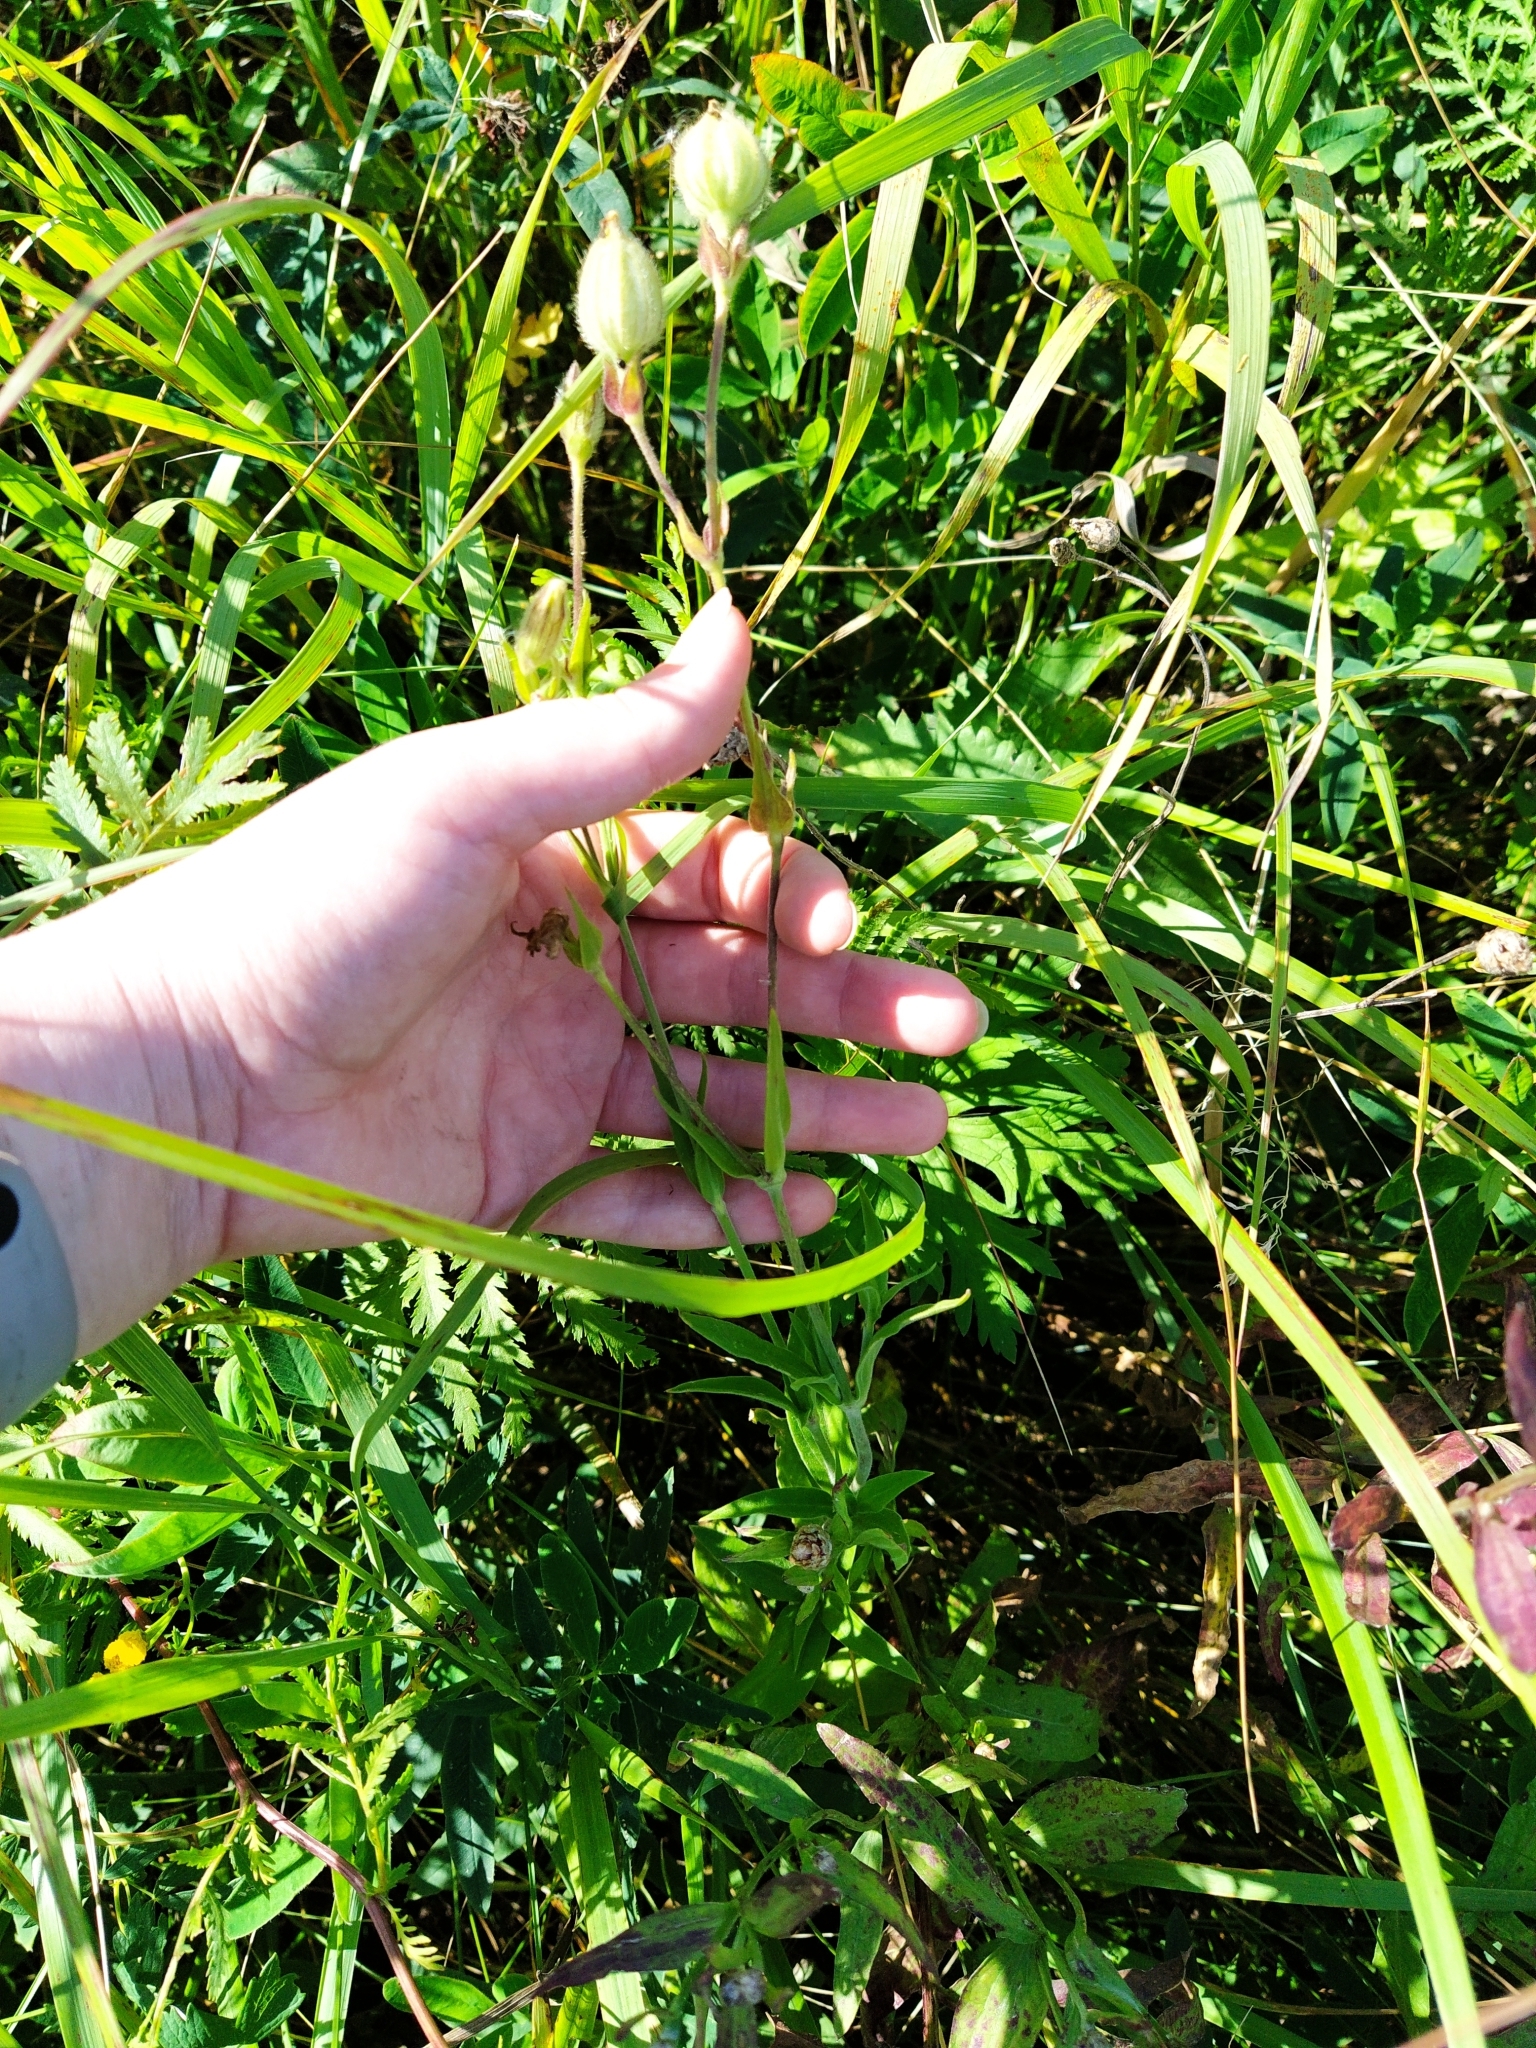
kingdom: Plantae
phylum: Tracheophyta
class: Magnoliopsida
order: Caryophyllales
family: Caryophyllaceae
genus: Silene
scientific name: Silene latifolia
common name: White campion
